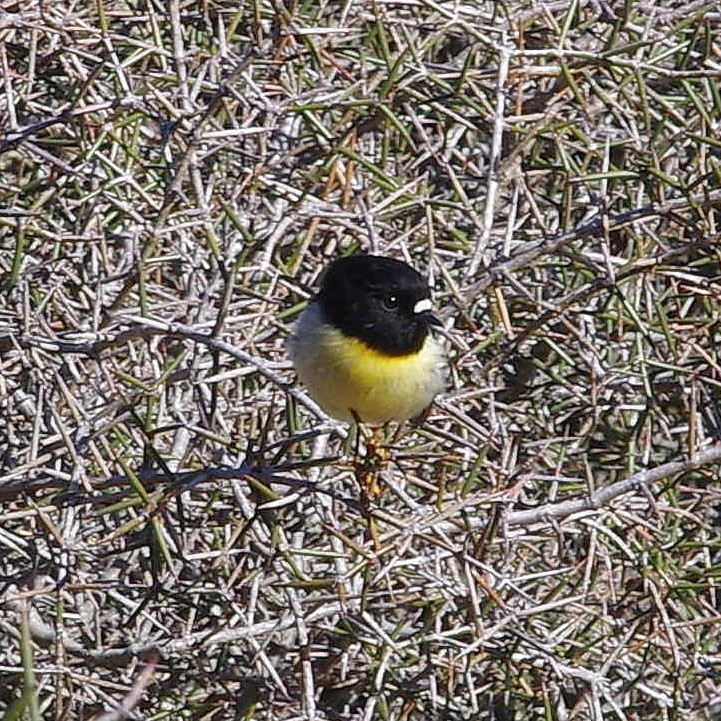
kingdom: Animalia
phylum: Chordata
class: Aves
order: Passeriformes
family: Petroicidae
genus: Petroica
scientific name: Petroica macrocephala
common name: Tomtit
